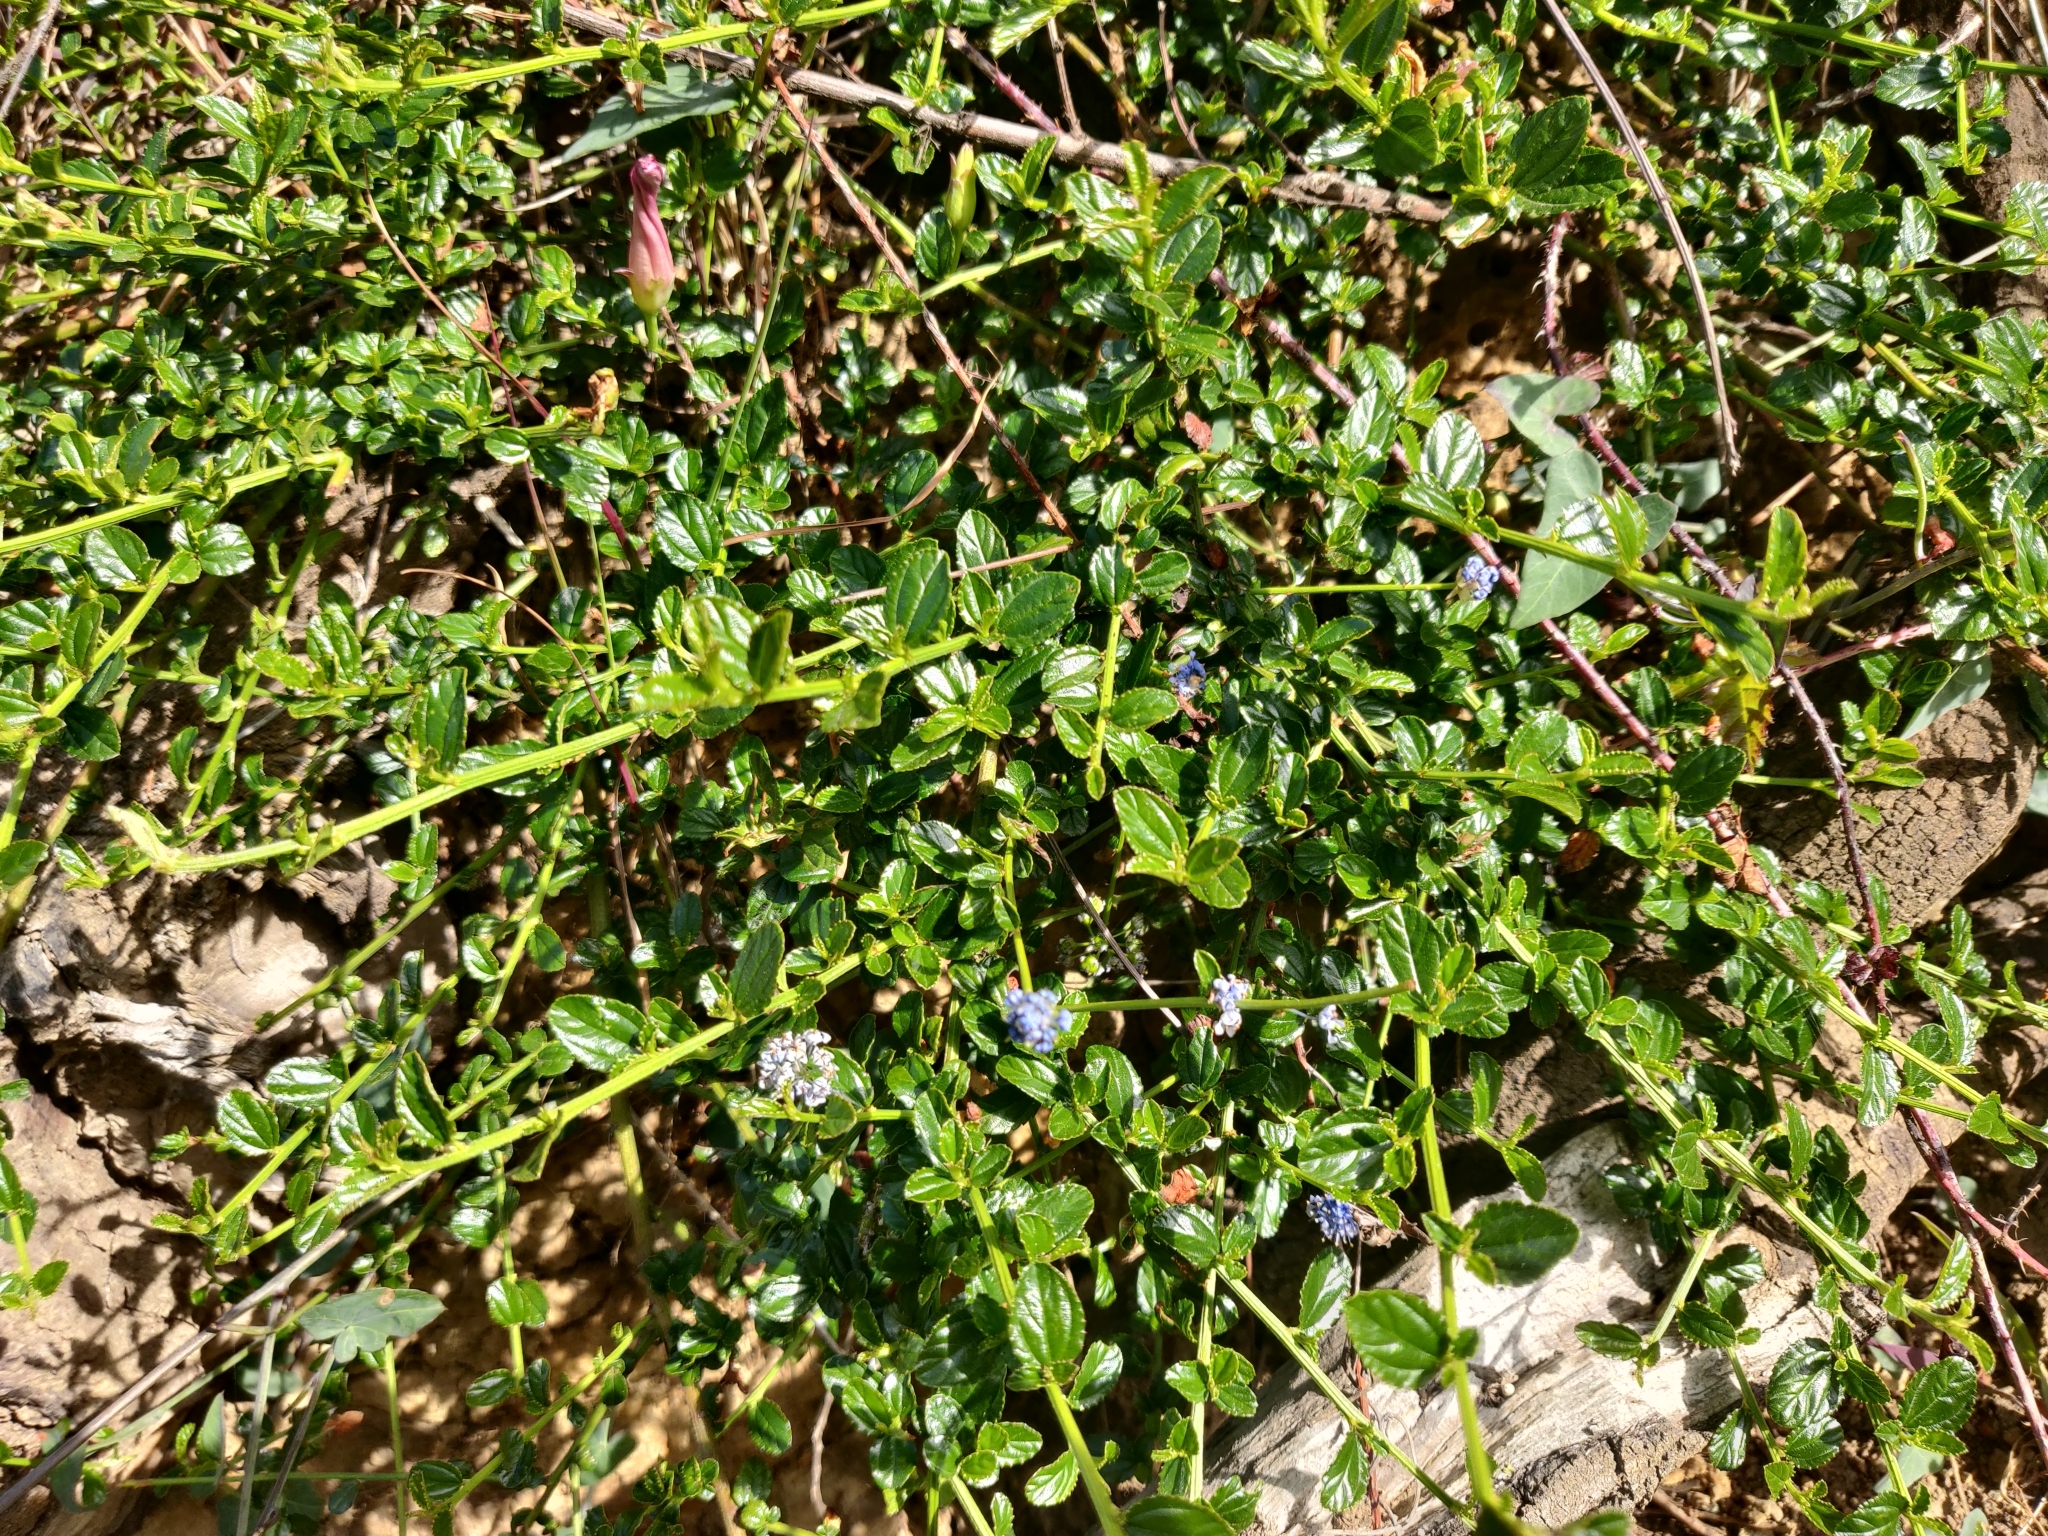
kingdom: Plantae
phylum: Tracheophyta
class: Magnoliopsida
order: Rosales
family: Rhamnaceae
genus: Ceanothus
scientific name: Ceanothus thyrsiflorus
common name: California-lilac
